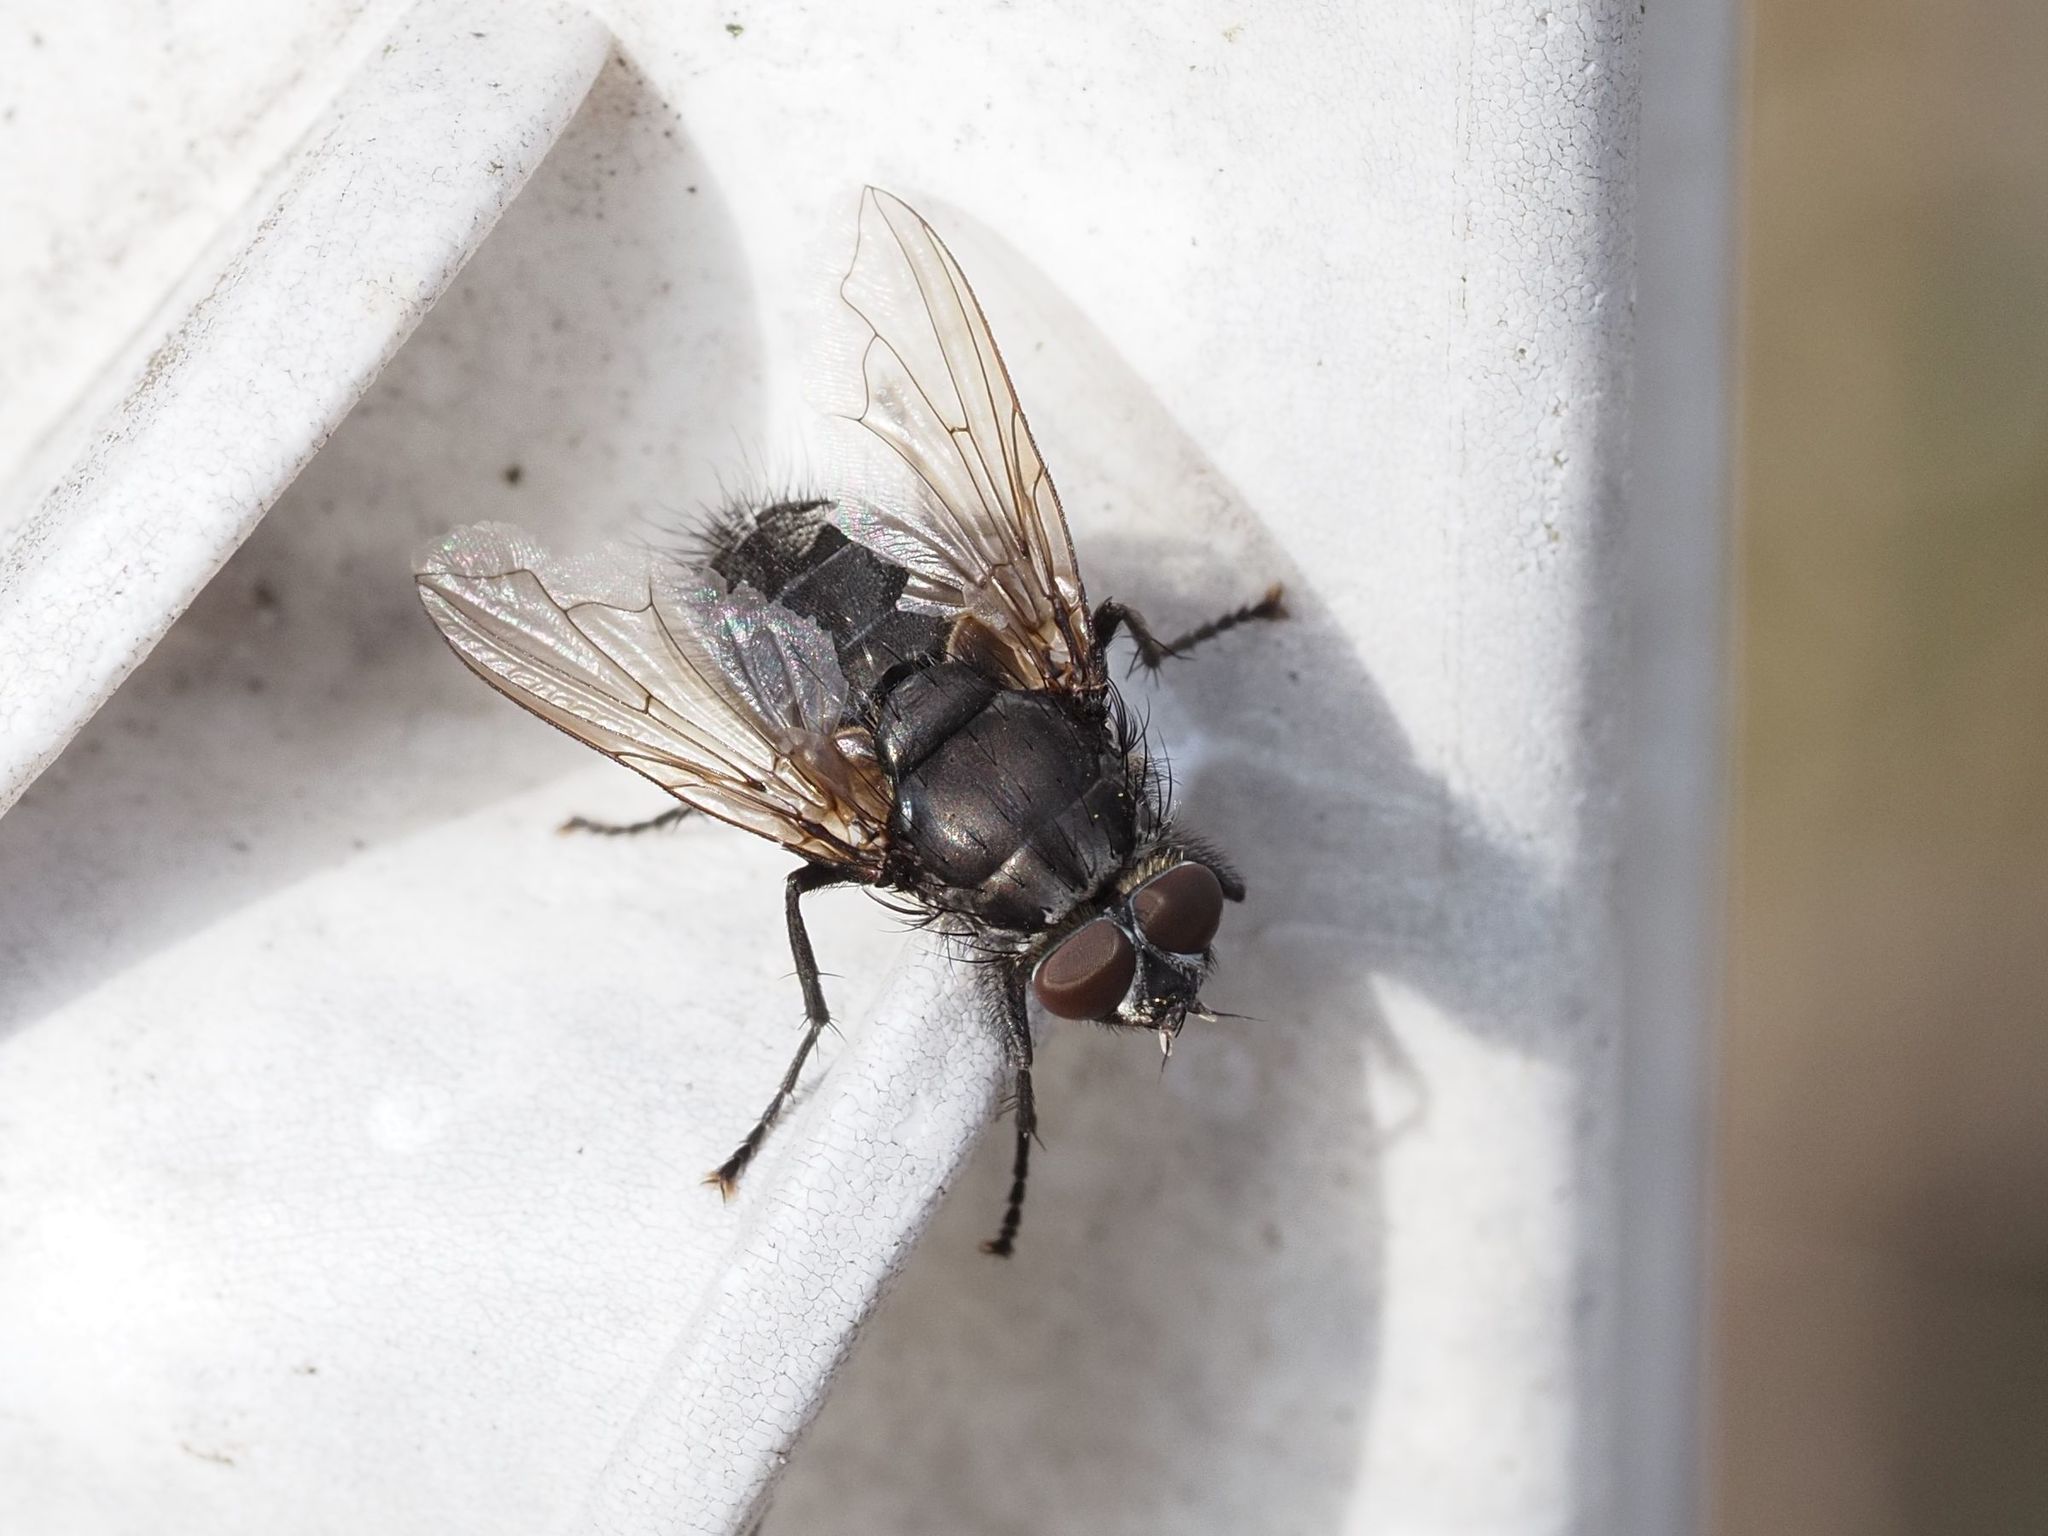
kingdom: Animalia
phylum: Arthropoda
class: Insecta
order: Diptera
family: Polleniidae
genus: Pollenia
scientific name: Pollenia vagabunda
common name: Vagabund cluster fly
